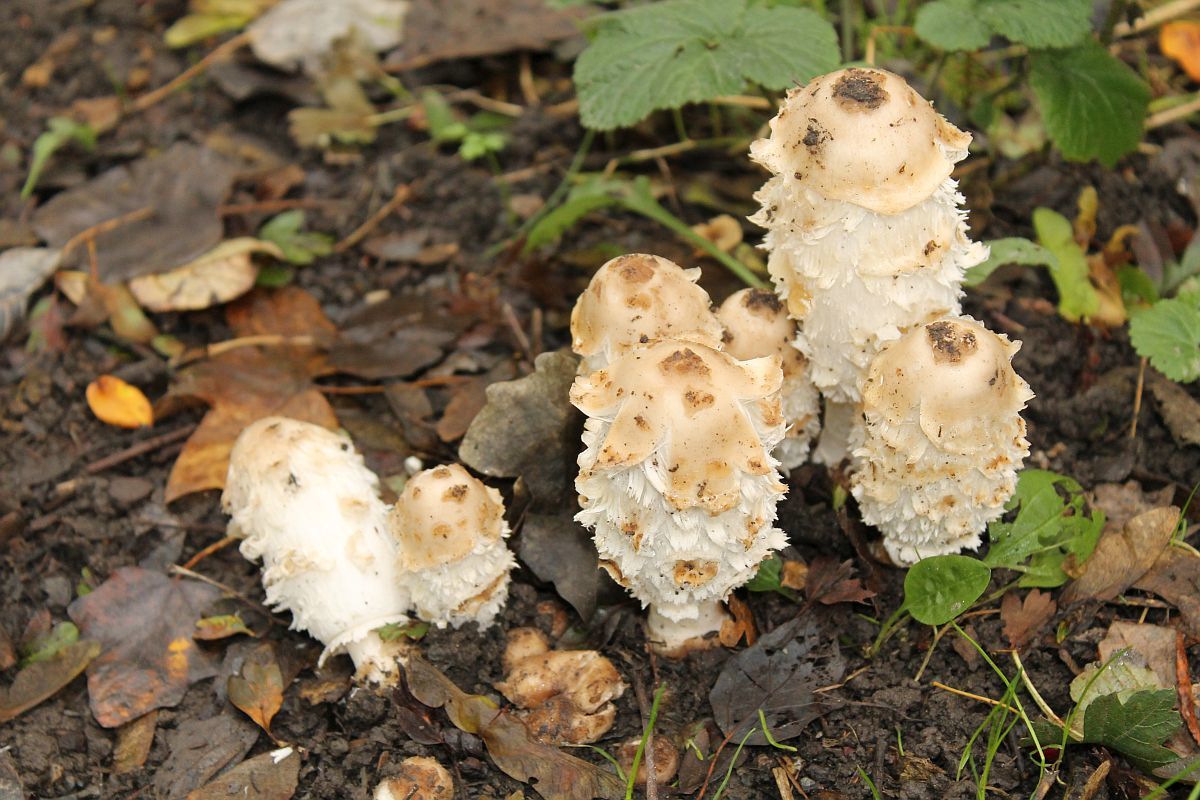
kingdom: Fungi
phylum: Basidiomycota
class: Agaricomycetes
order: Agaricales
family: Agaricaceae
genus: Coprinus
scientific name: Coprinus comatus
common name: Lawyer's wig
